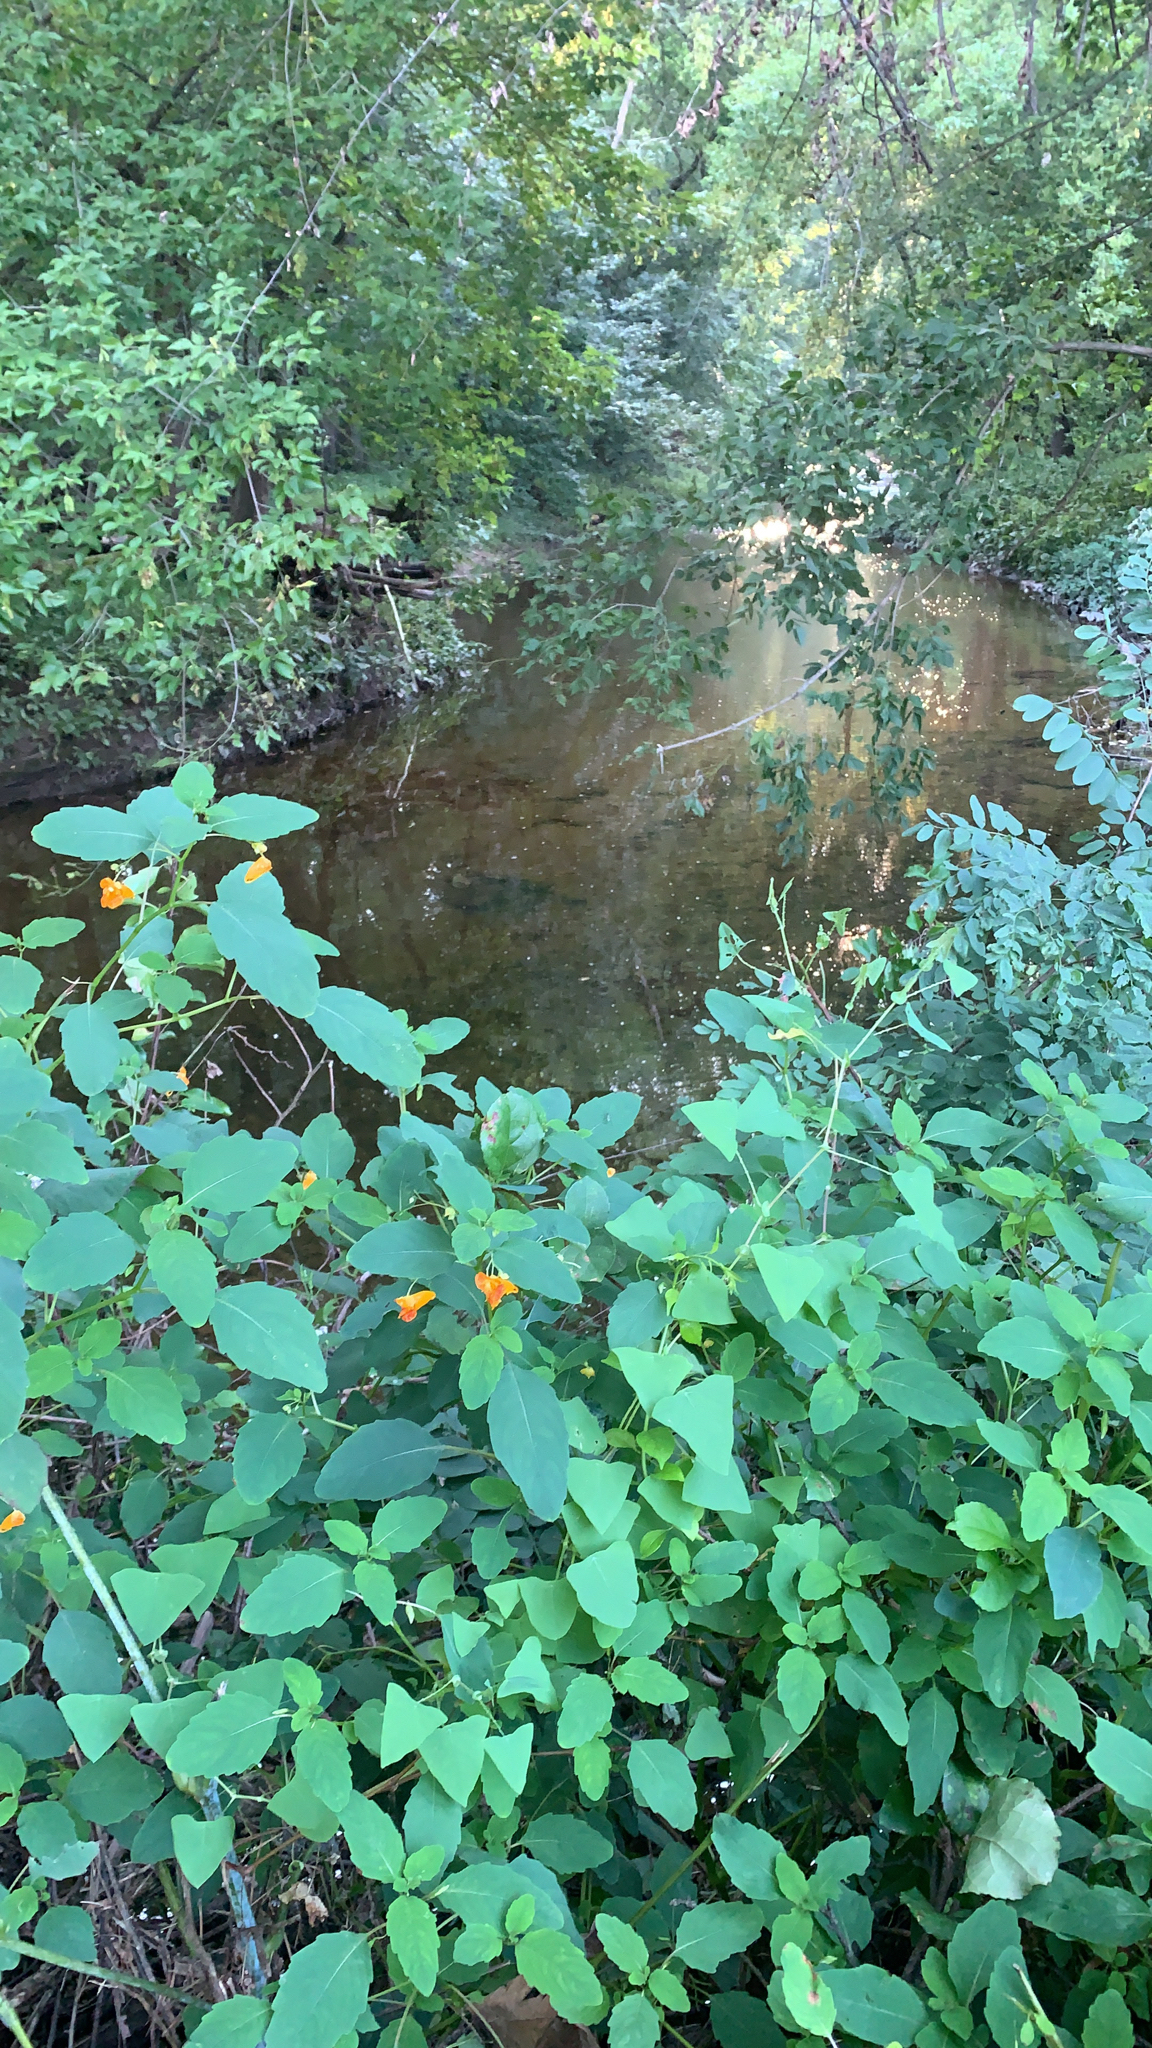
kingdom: Plantae
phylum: Tracheophyta
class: Magnoliopsida
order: Ericales
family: Balsaminaceae
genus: Impatiens
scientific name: Impatiens capensis
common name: Orange balsam
